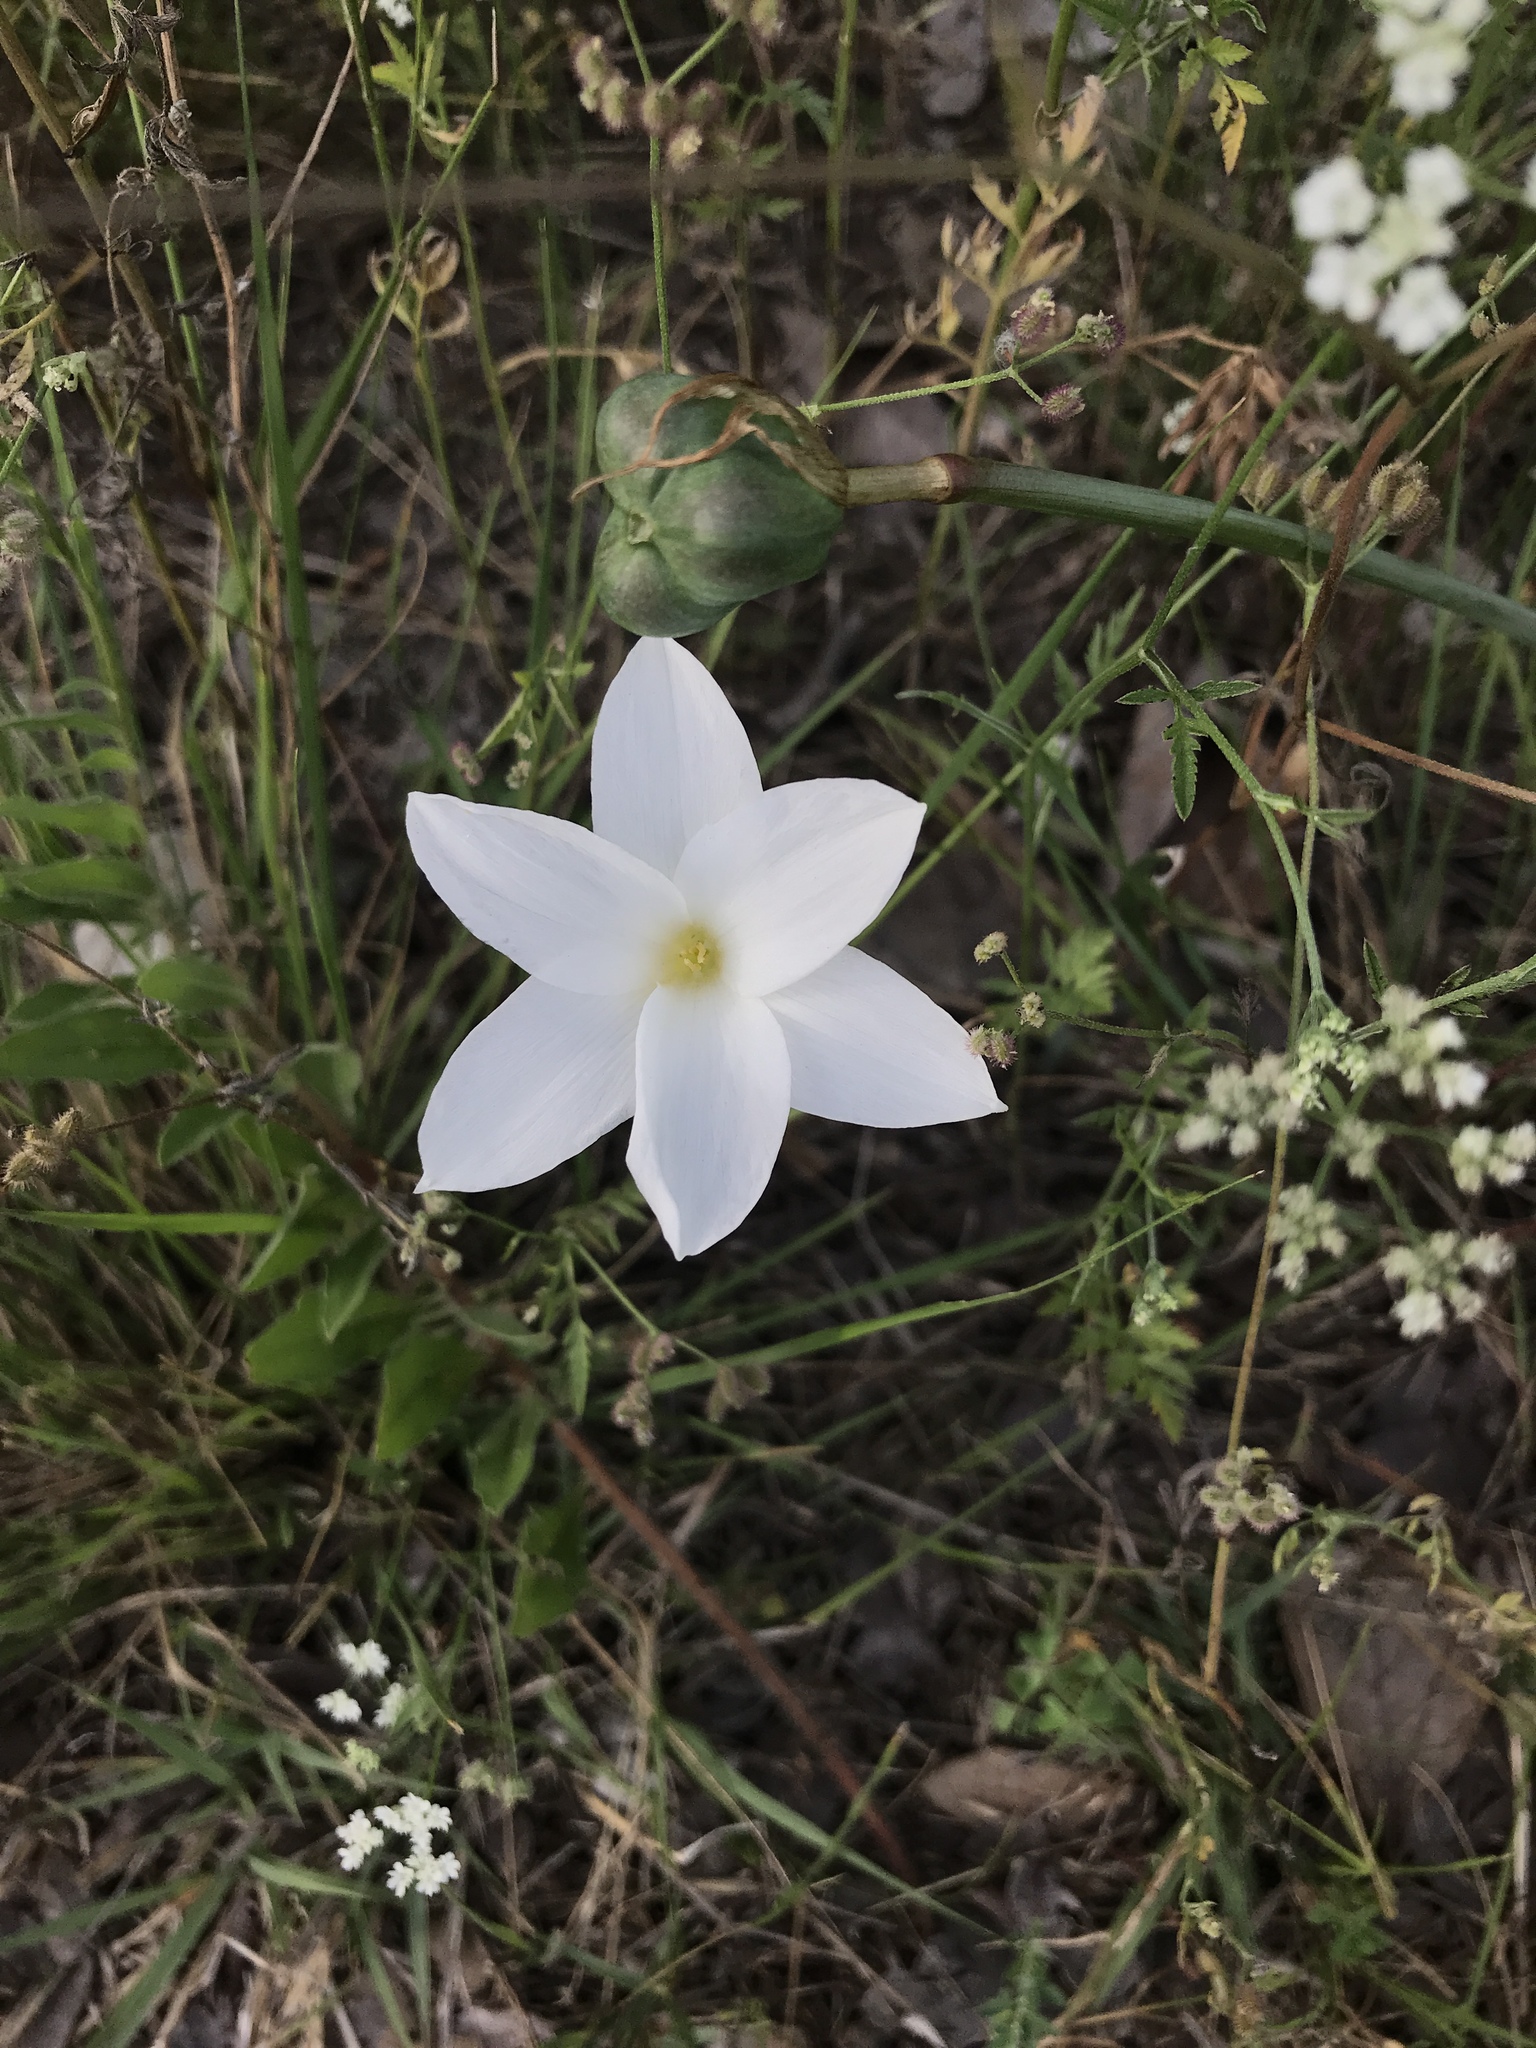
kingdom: Plantae
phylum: Tracheophyta
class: Liliopsida
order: Asparagales
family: Amaryllidaceae
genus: Zephyranthes
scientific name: Zephyranthes drummondii
